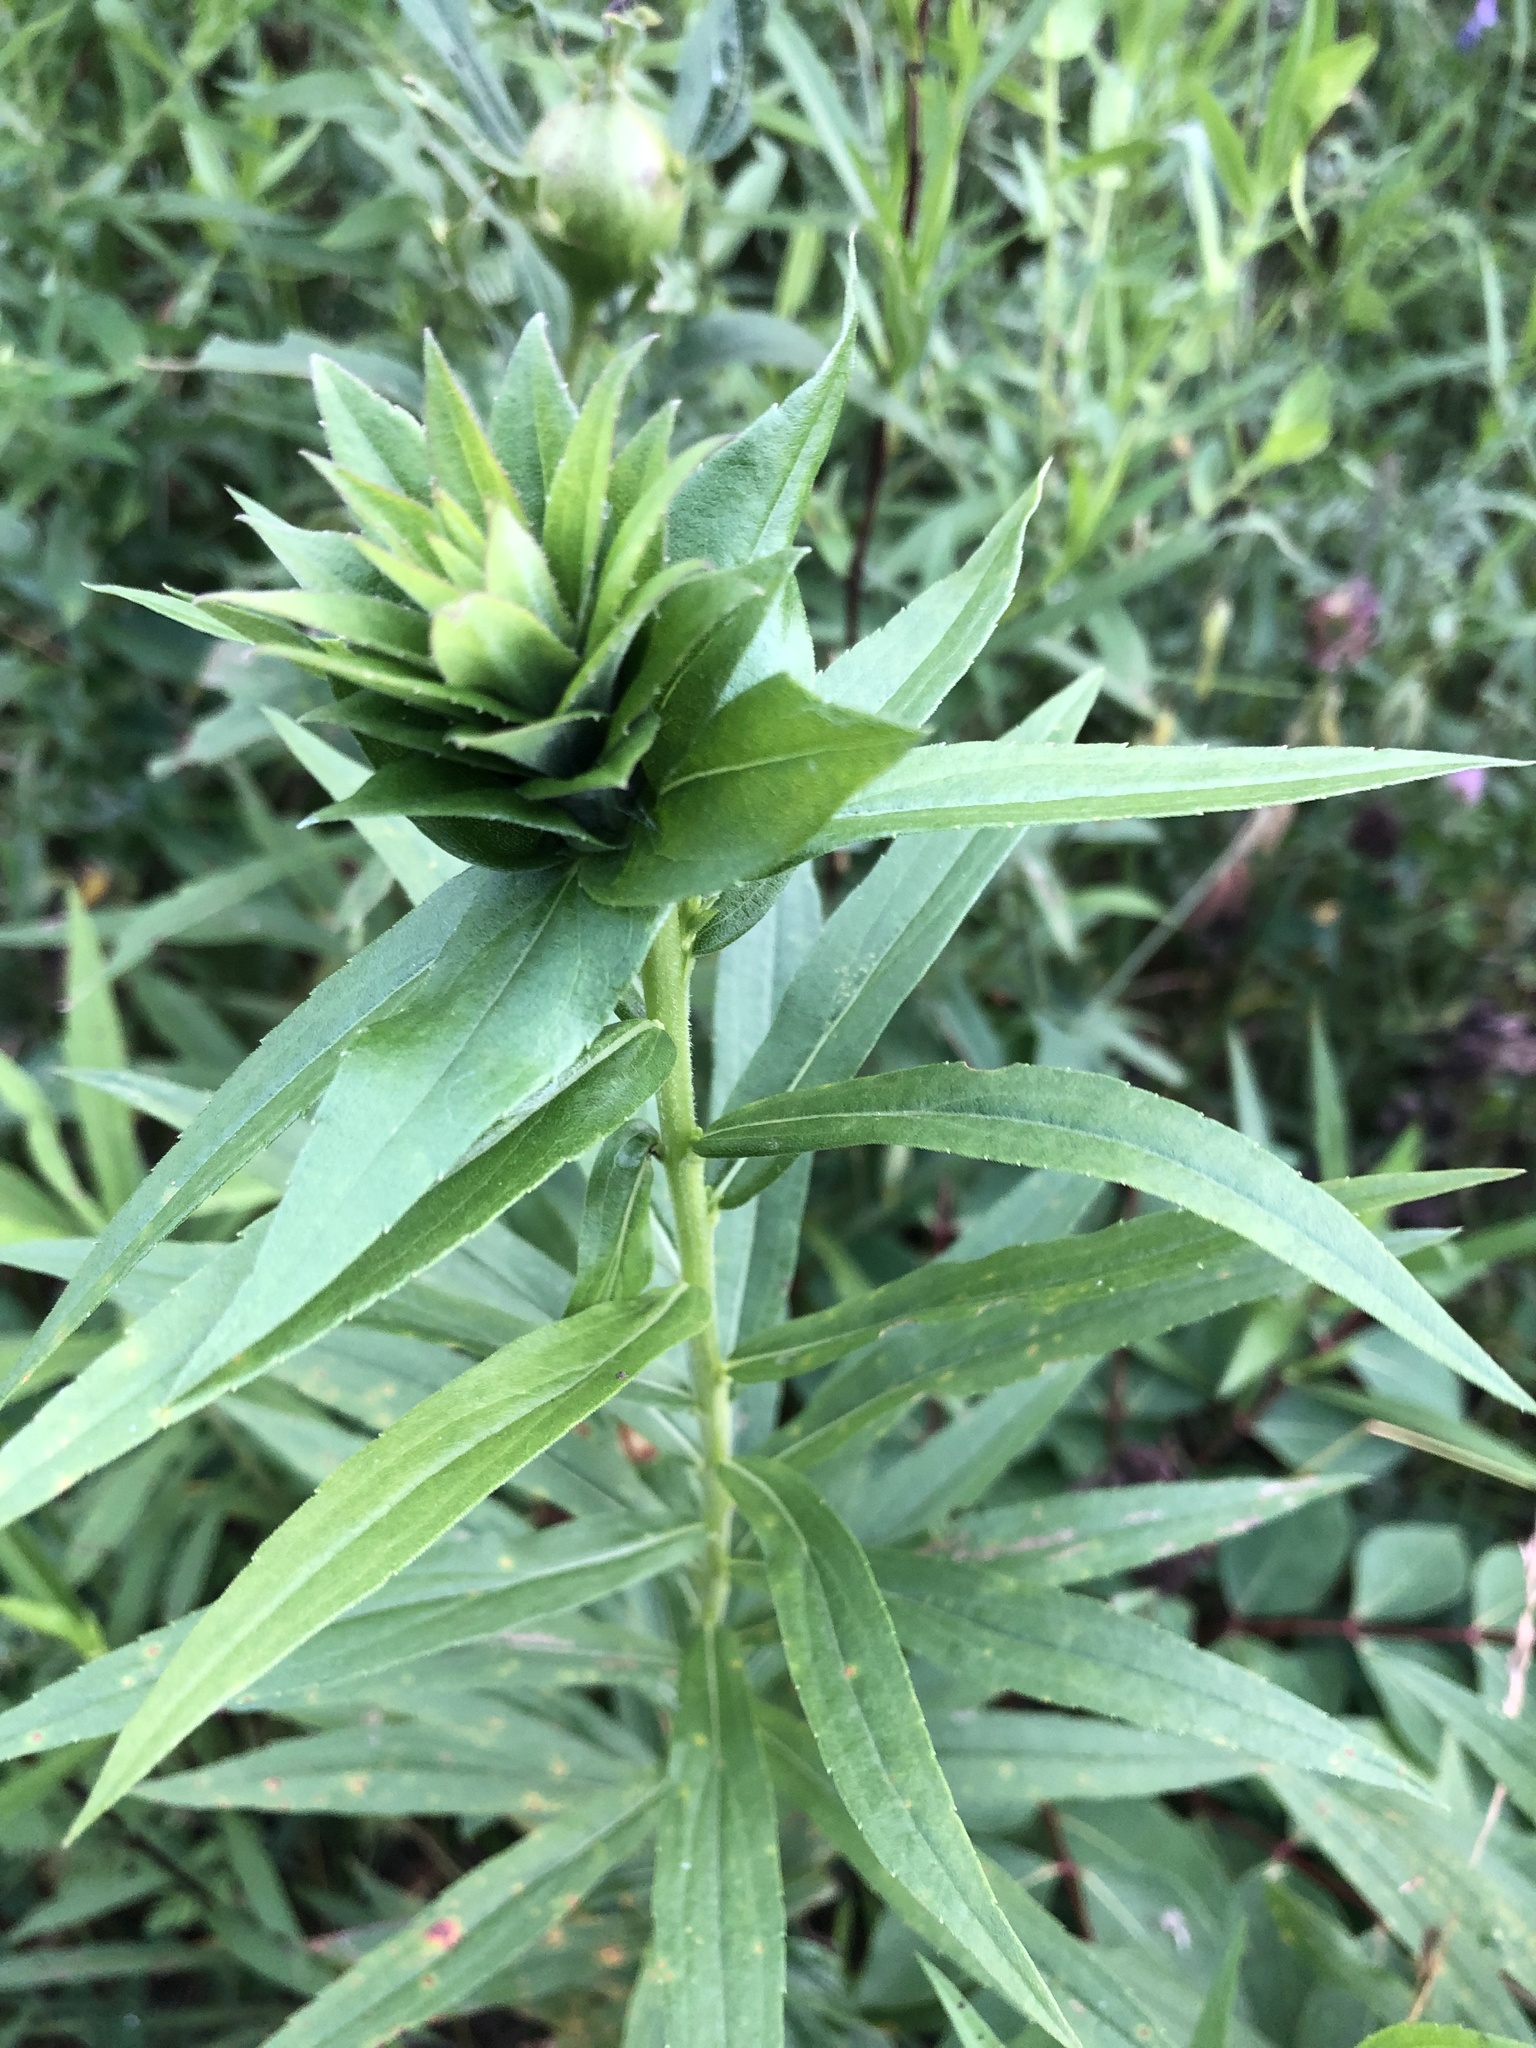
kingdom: Animalia
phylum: Arthropoda
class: Insecta
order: Diptera
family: Cecidomyiidae
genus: Rhopalomyia
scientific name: Rhopalomyia solidaginis
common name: Goldenrod bunch gall midge
